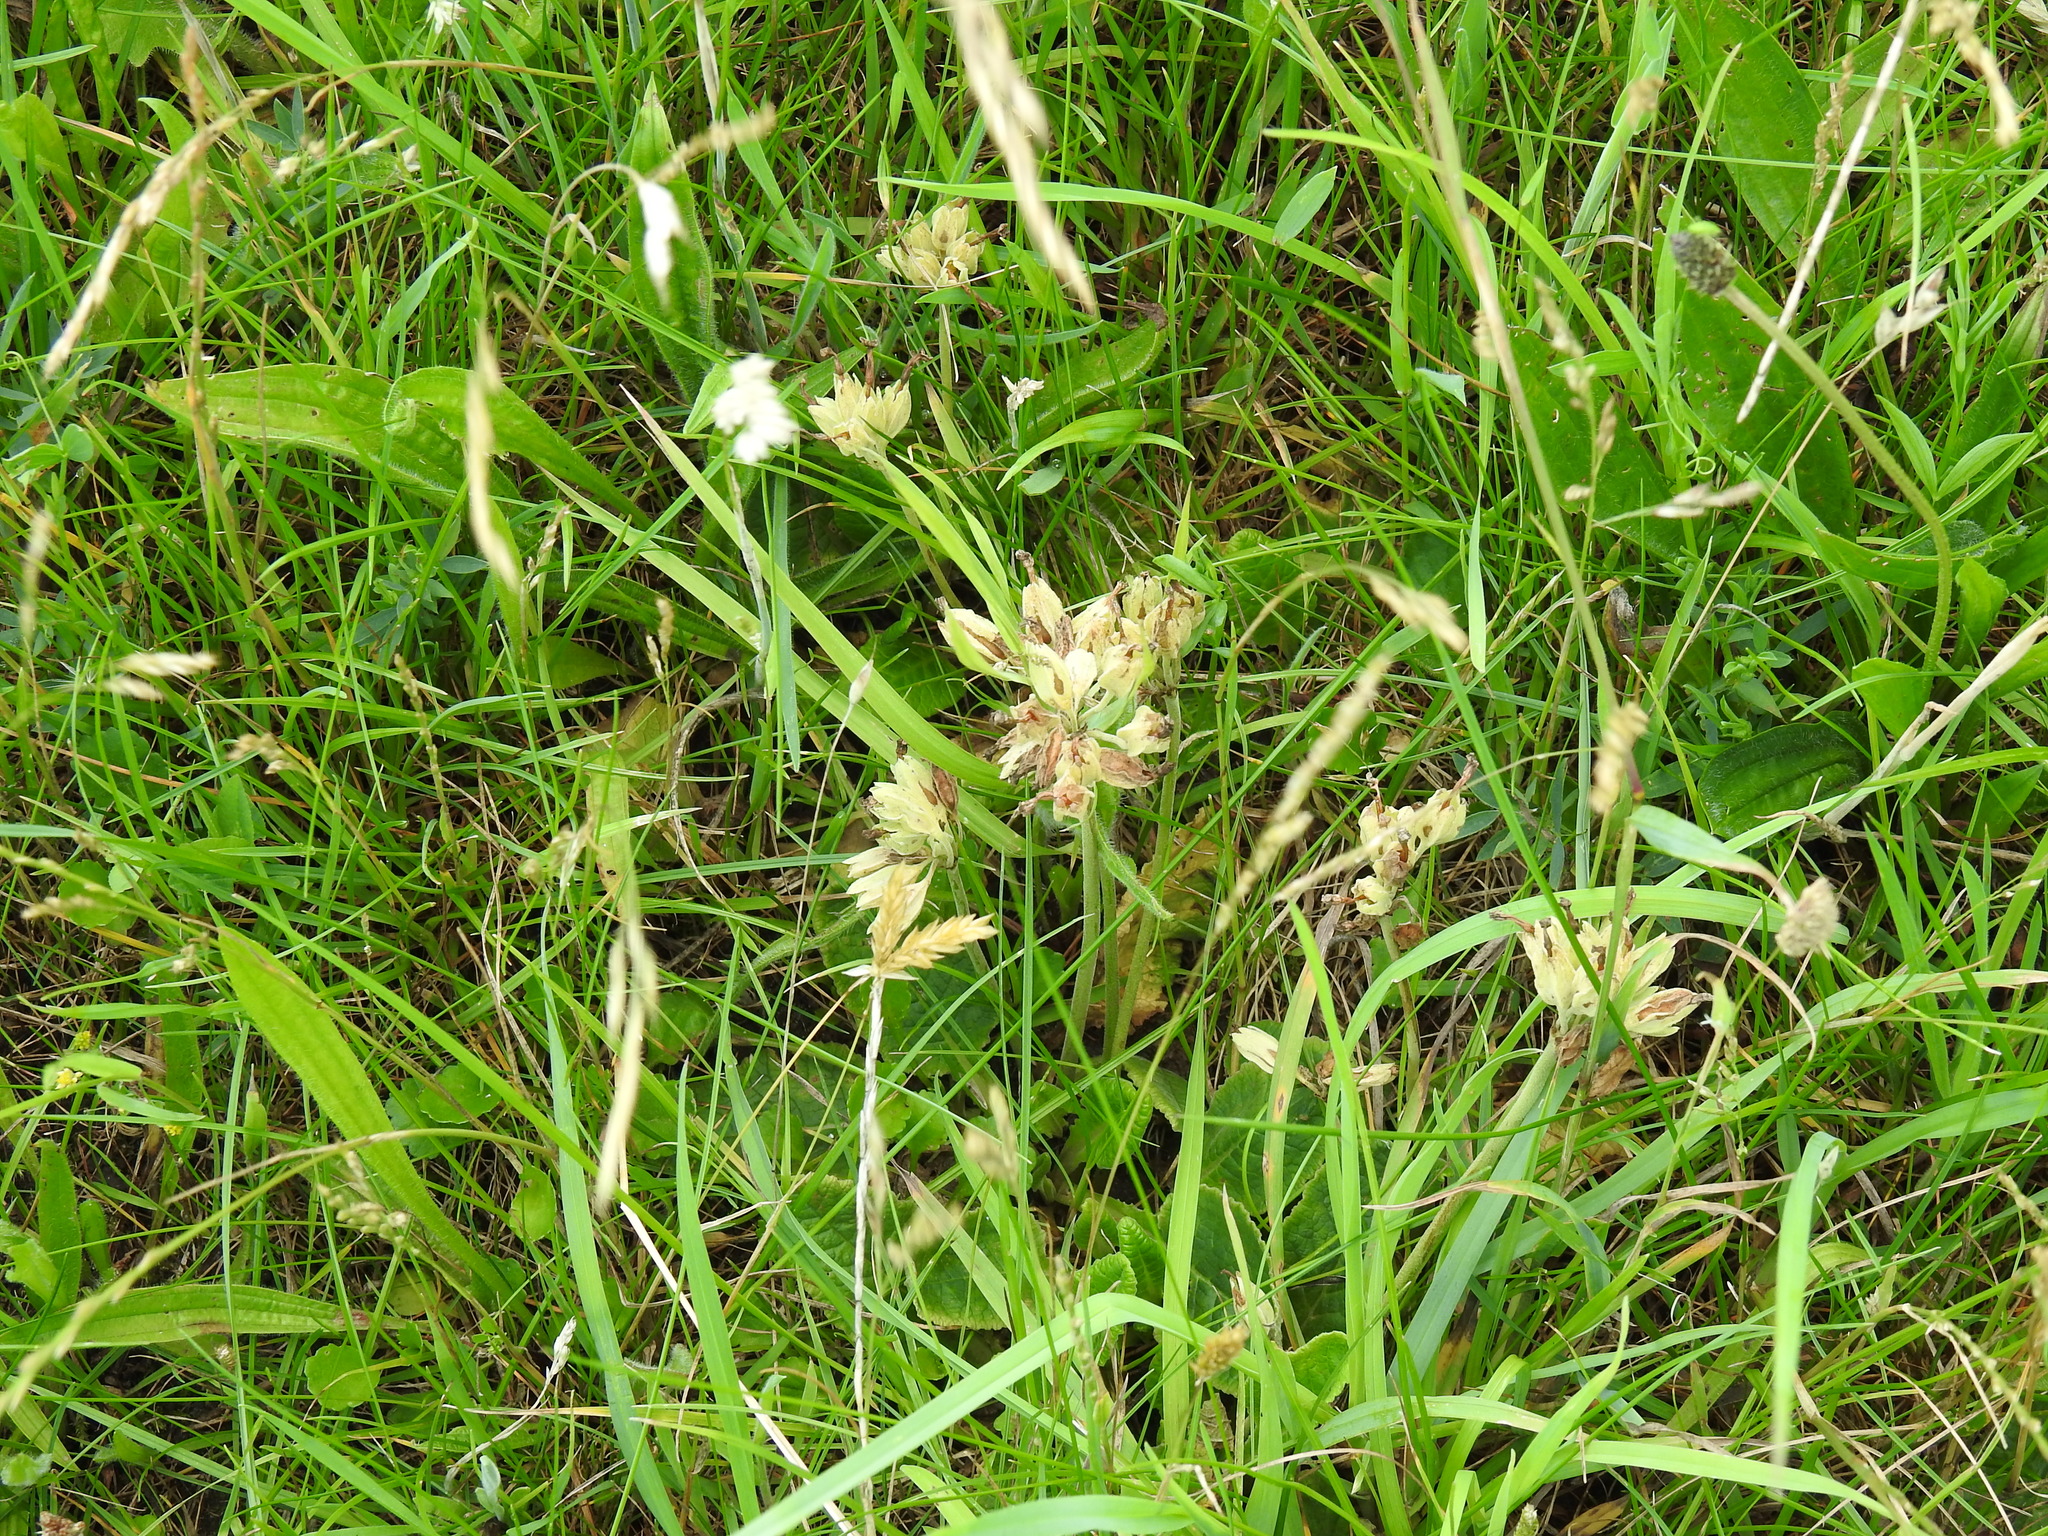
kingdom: Plantae
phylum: Tracheophyta
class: Magnoliopsida
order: Ericales
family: Primulaceae
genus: Primula
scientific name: Primula veris
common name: Cowslip
